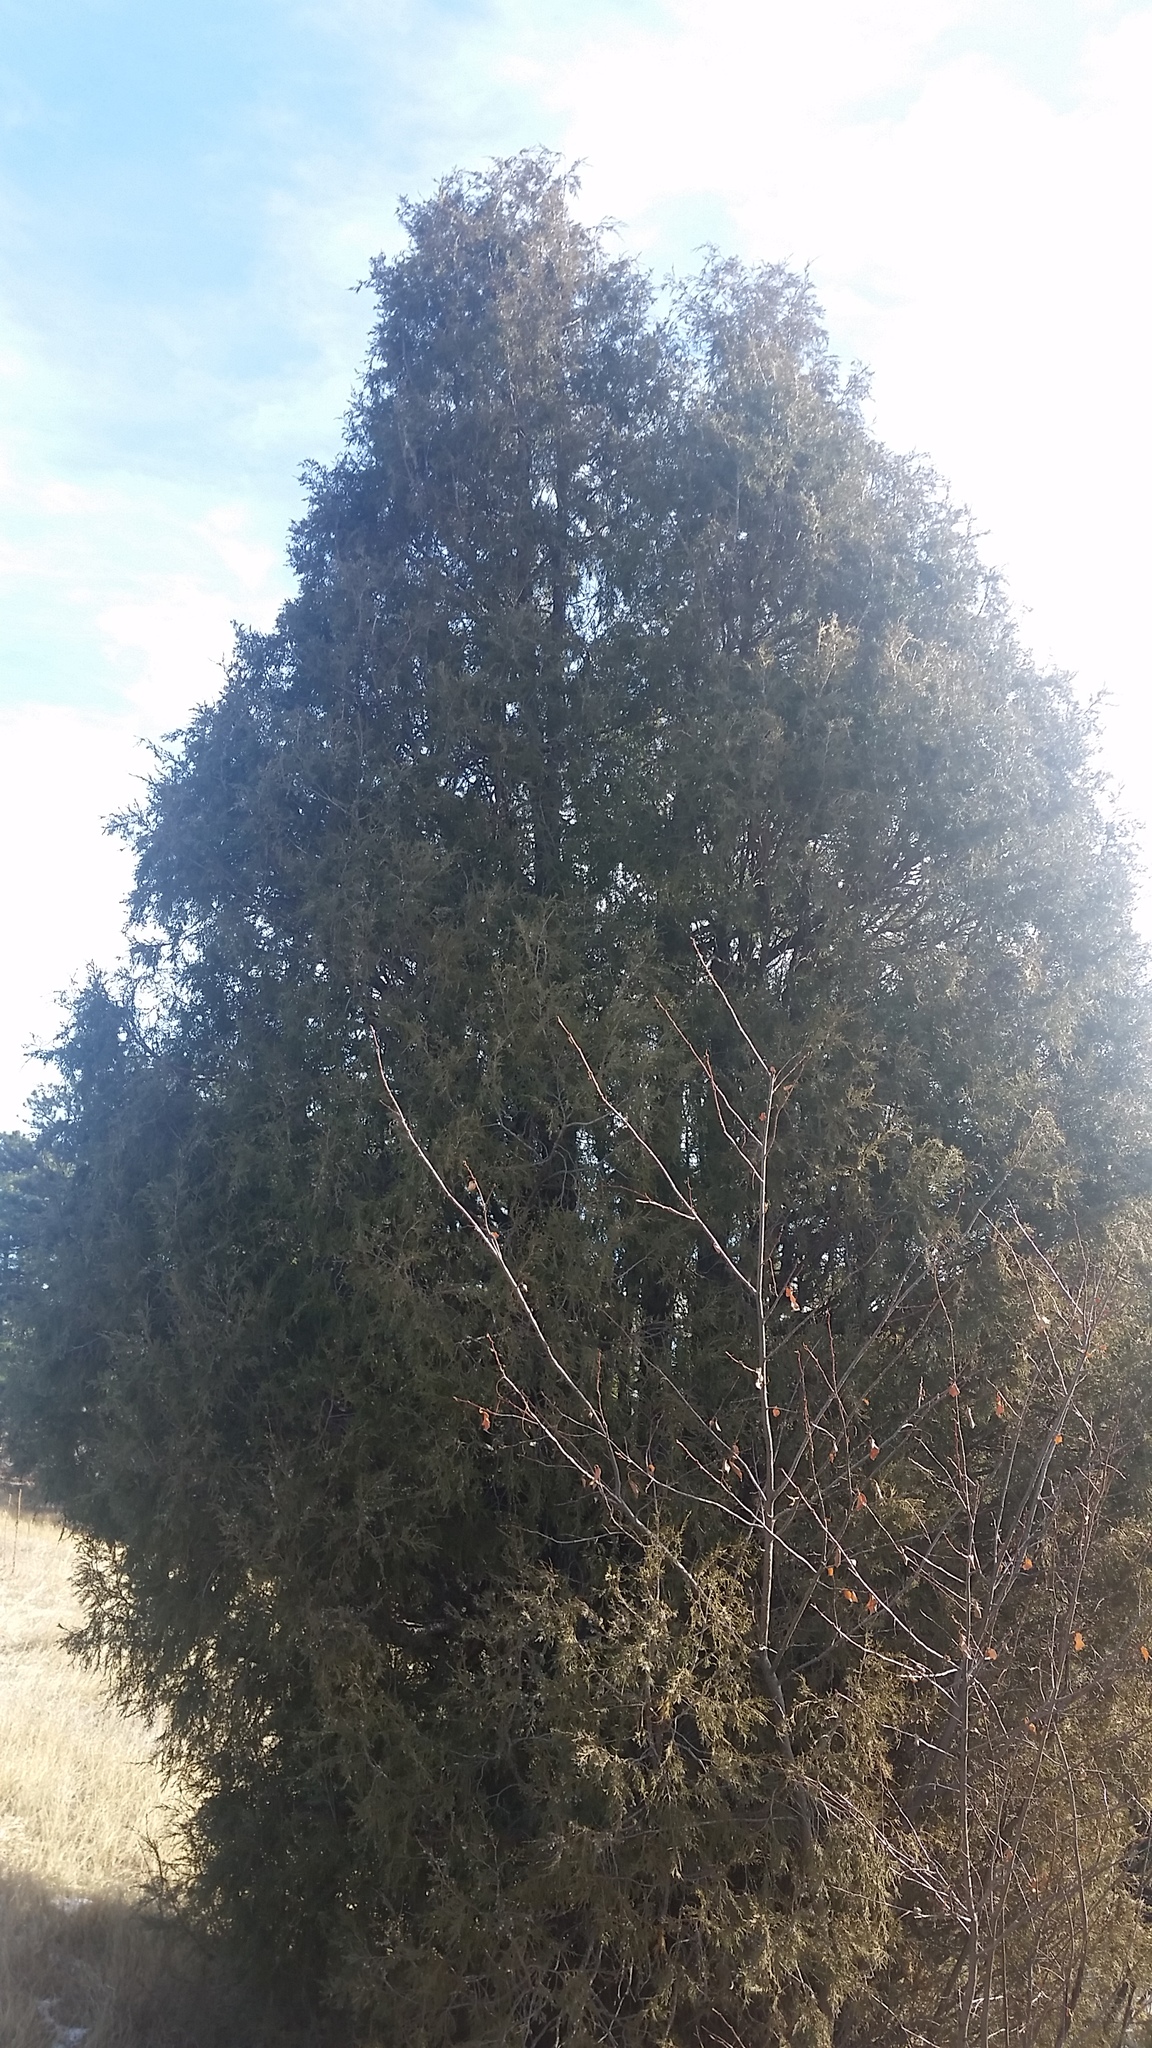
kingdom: Plantae
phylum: Tracheophyta
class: Pinopsida
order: Pinales
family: Cupressaceae
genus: Juniperus
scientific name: Juniperus scopulorum
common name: Rocky mountain juniper
